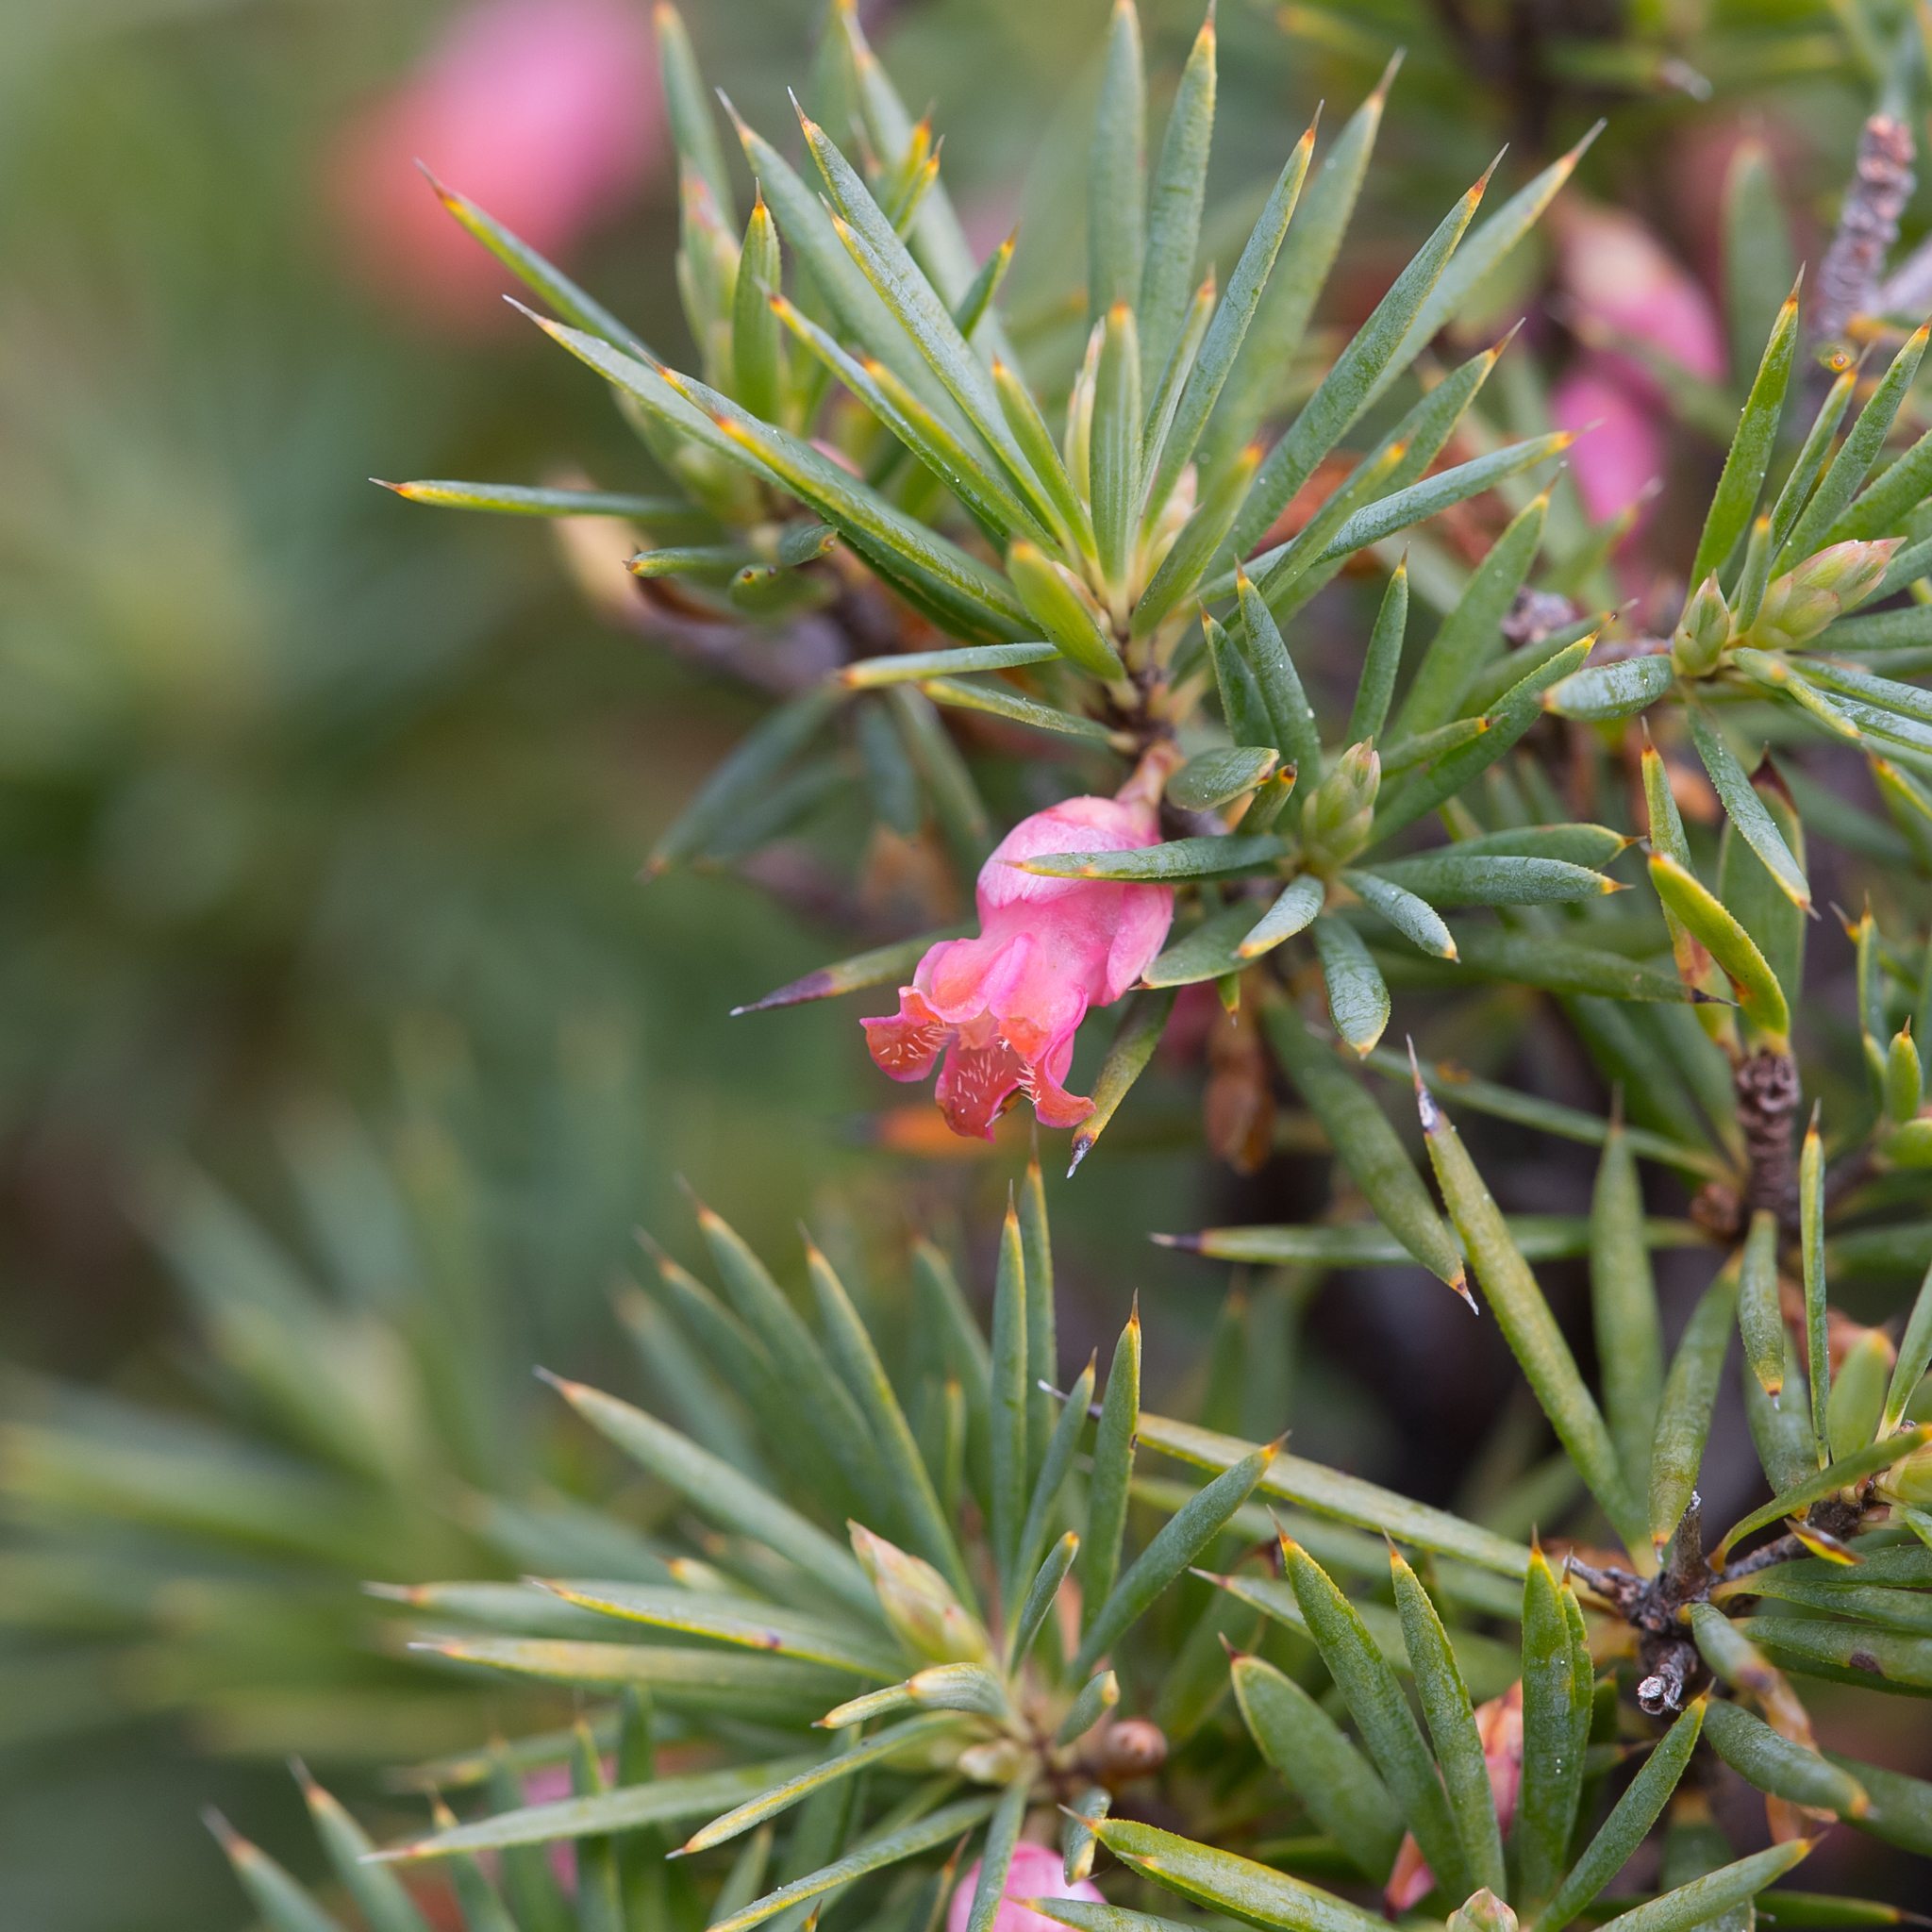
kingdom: Plantae
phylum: Tracheophyta
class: Magnoliopsida
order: Ericales
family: Ericaceae
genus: Brachyloma
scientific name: Brachyloma ericoides
